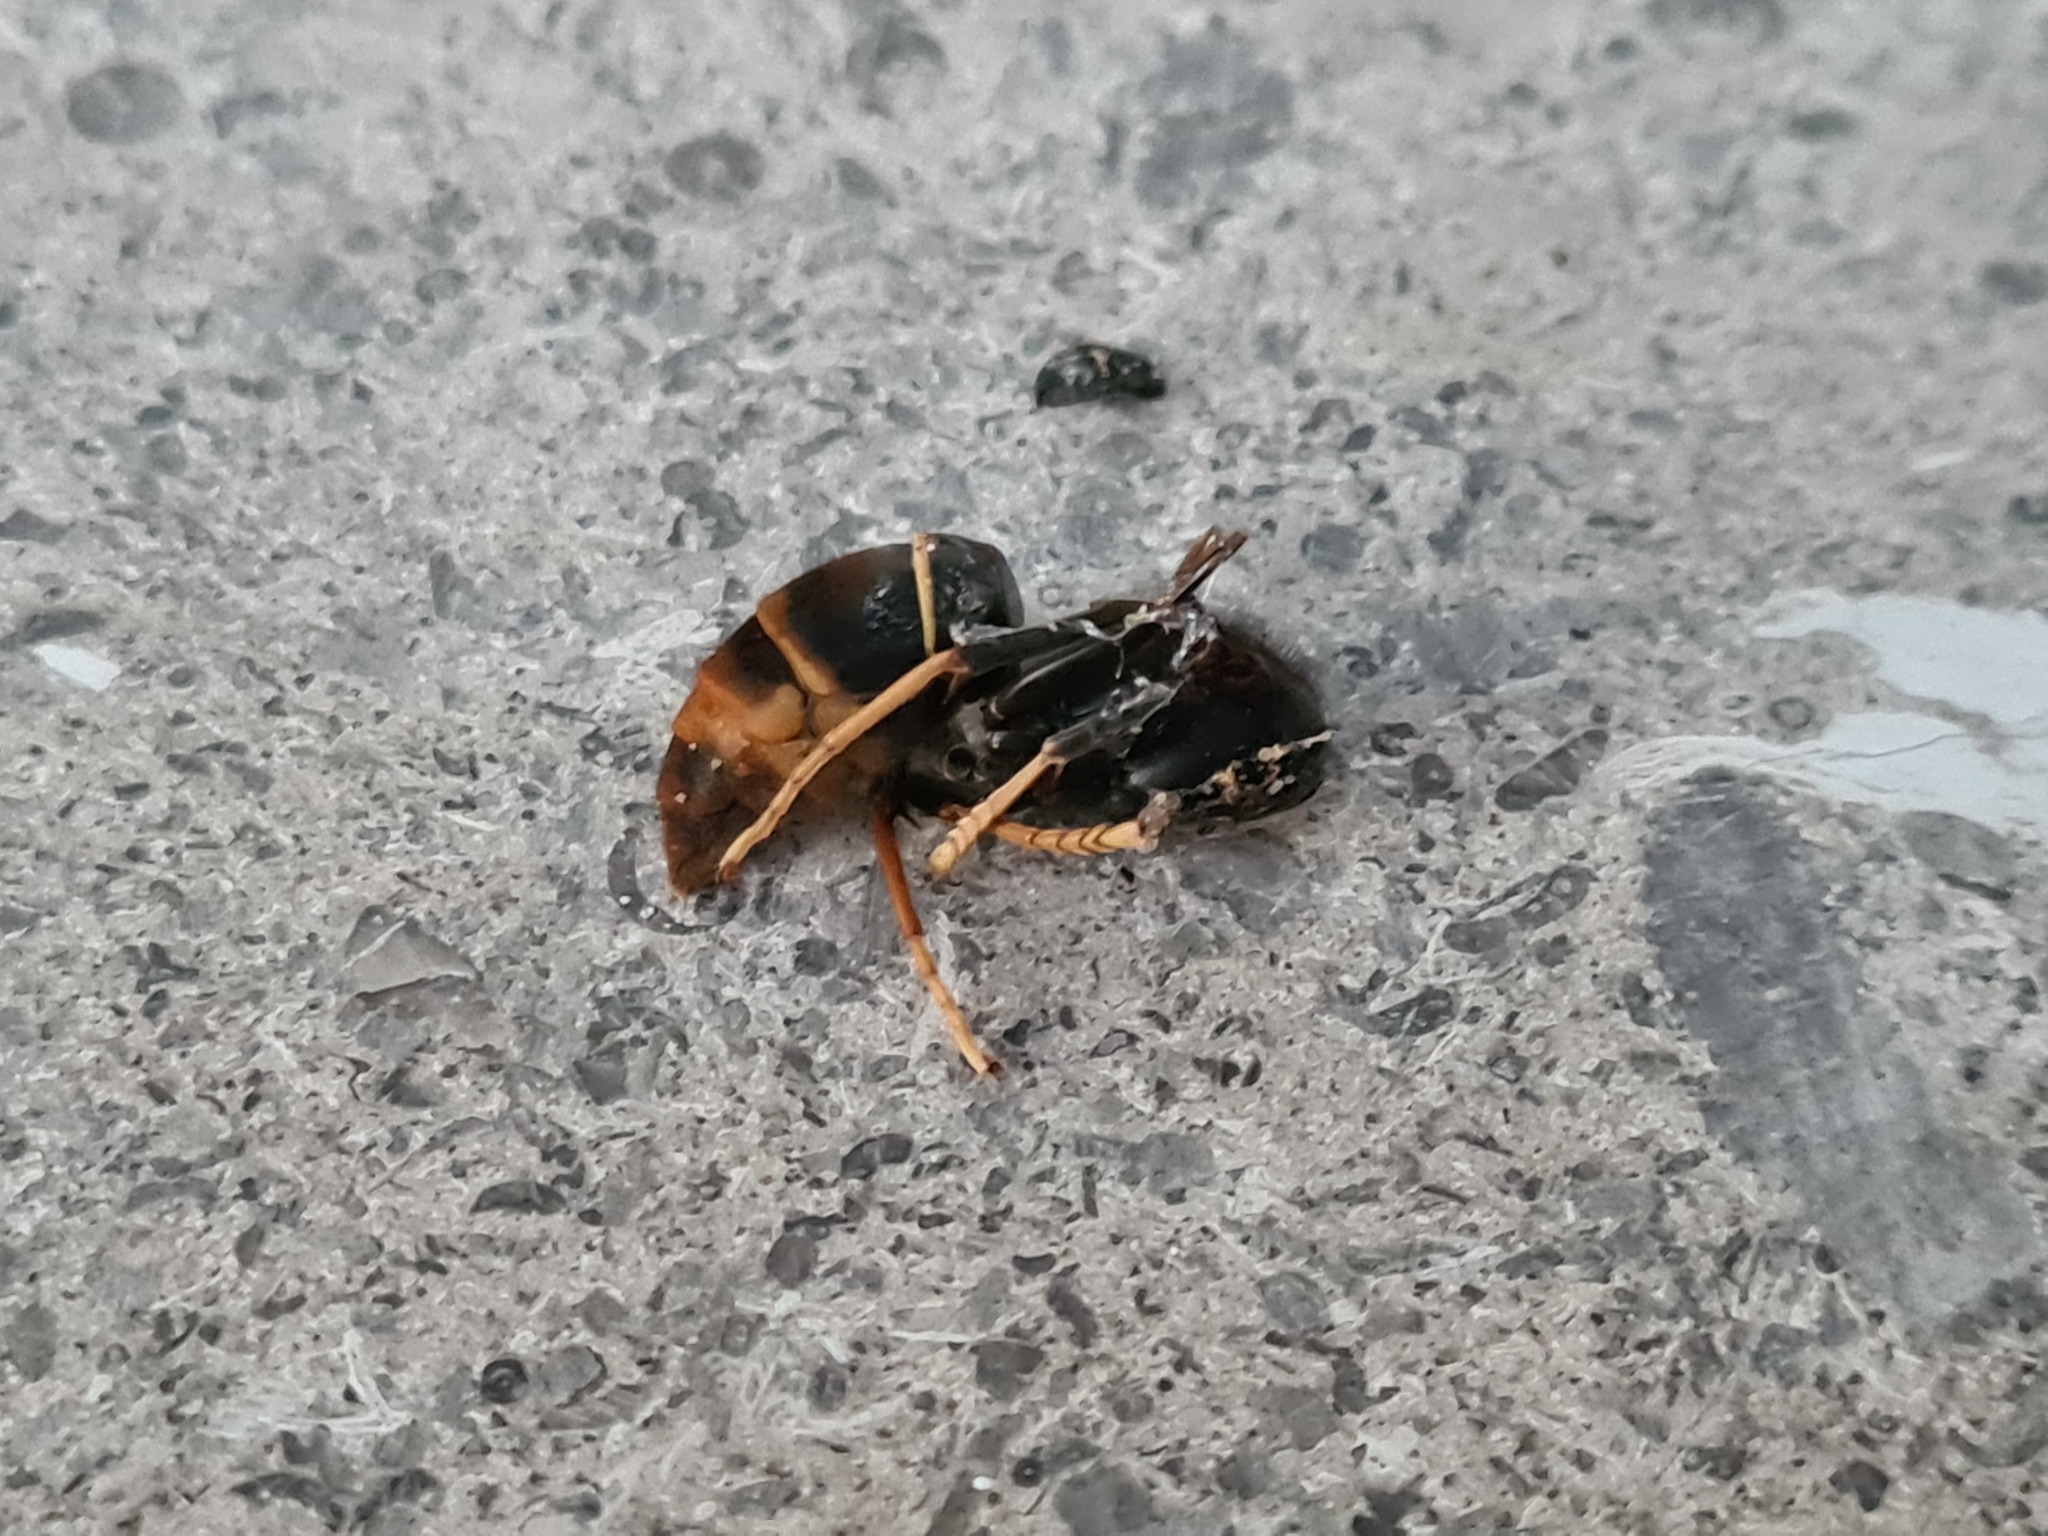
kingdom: Animalia
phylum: Arthropoda
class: Insecta
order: Hymenoptera
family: Vespidae
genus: Vespa
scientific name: Vespa velutina
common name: Asian hornet
